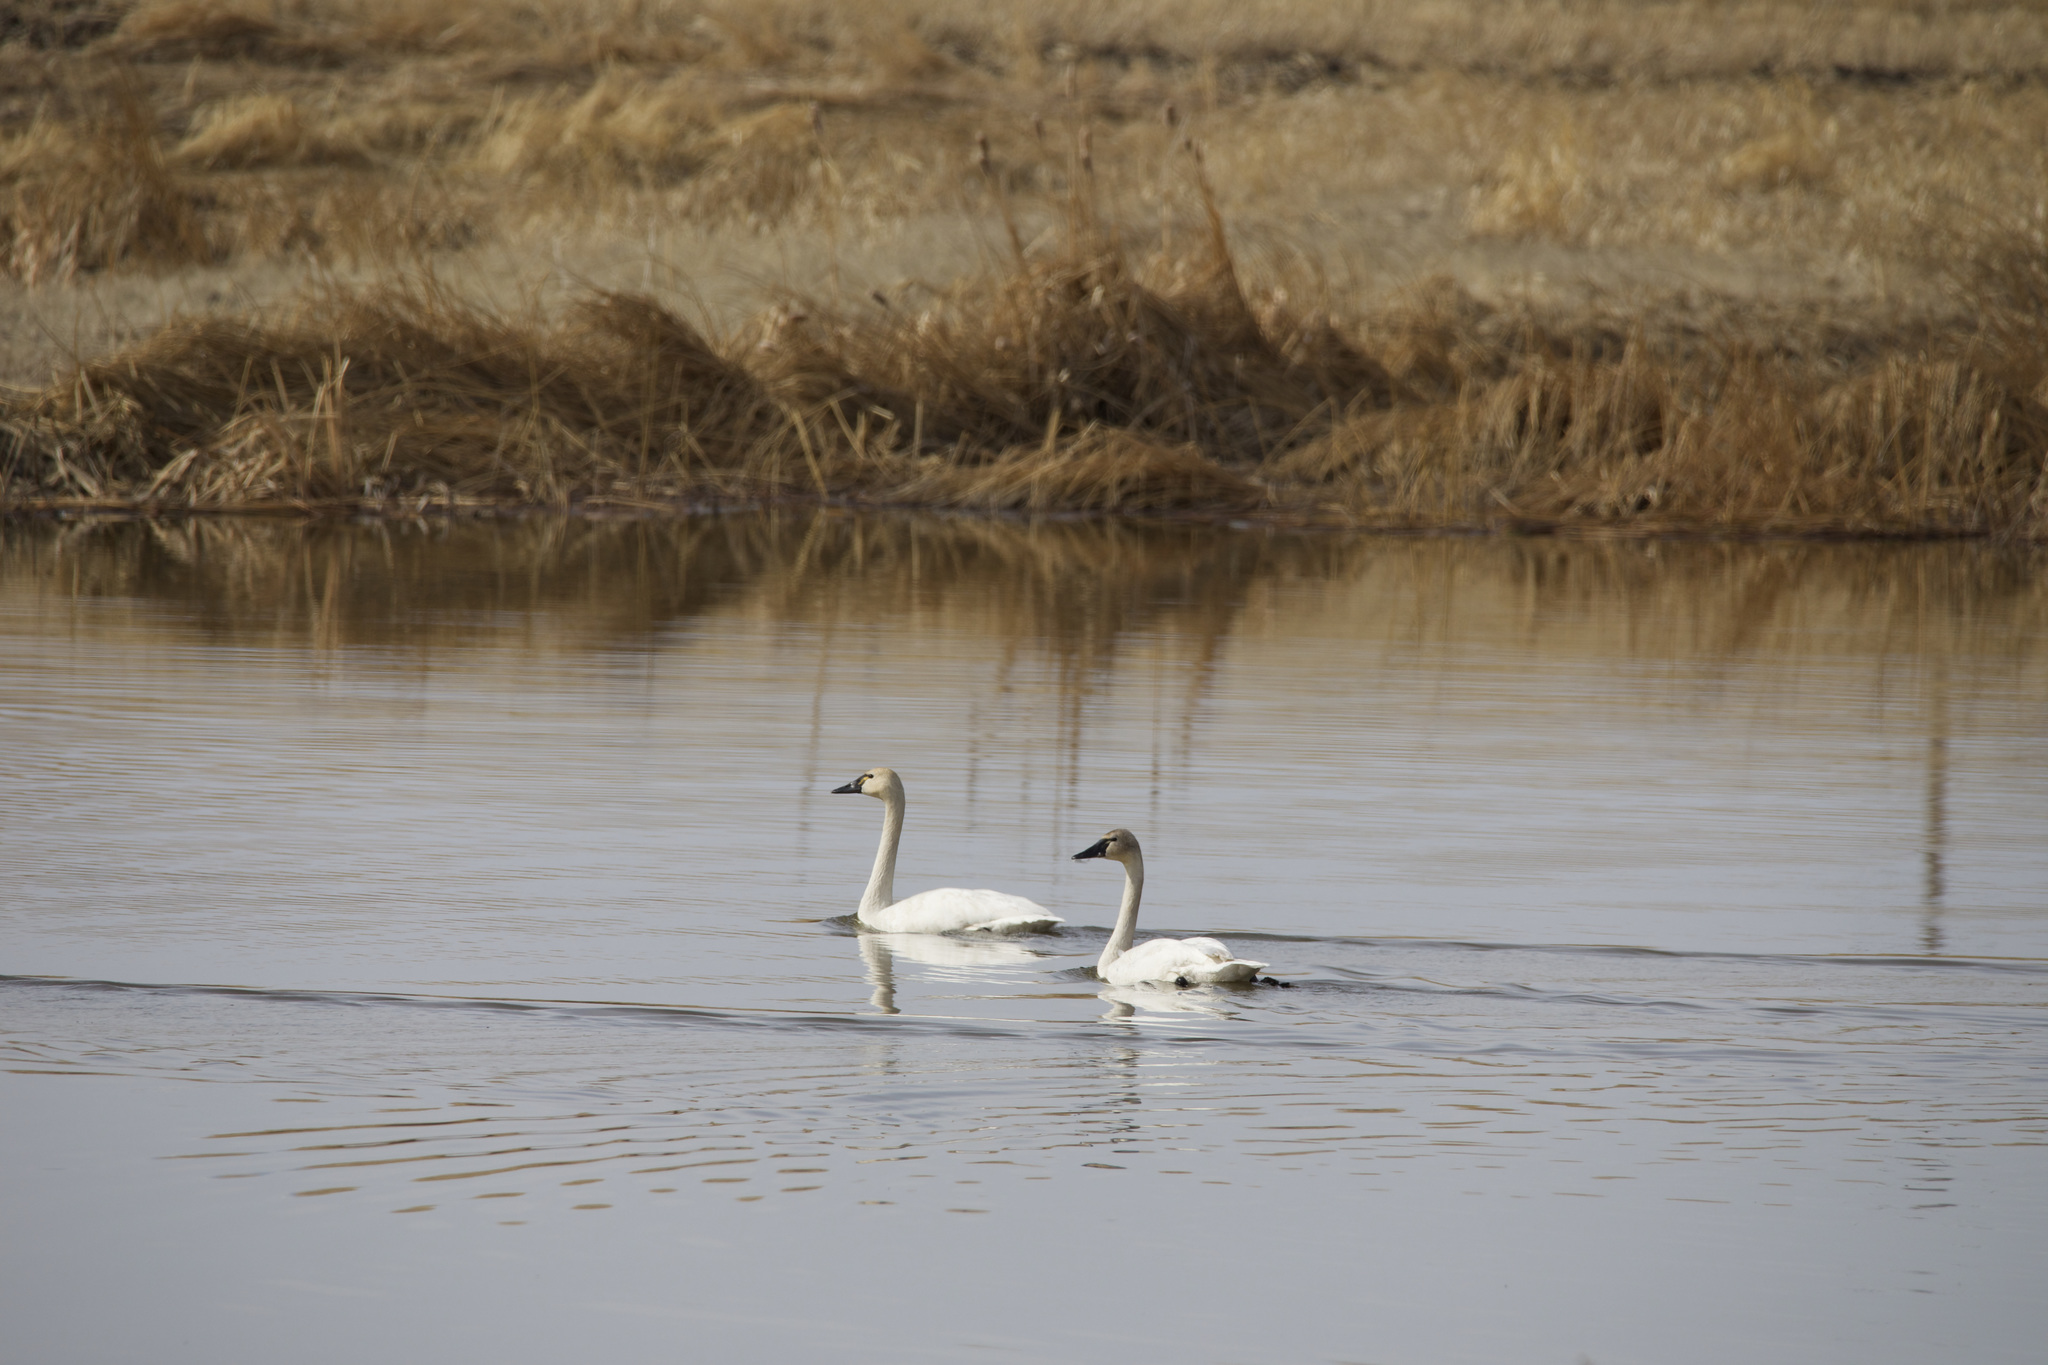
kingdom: Animalia
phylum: Chordata
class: Aves
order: Anseriformes
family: Anatidae
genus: Cygnus
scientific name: Cygnus columbianus
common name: Tundra swan
